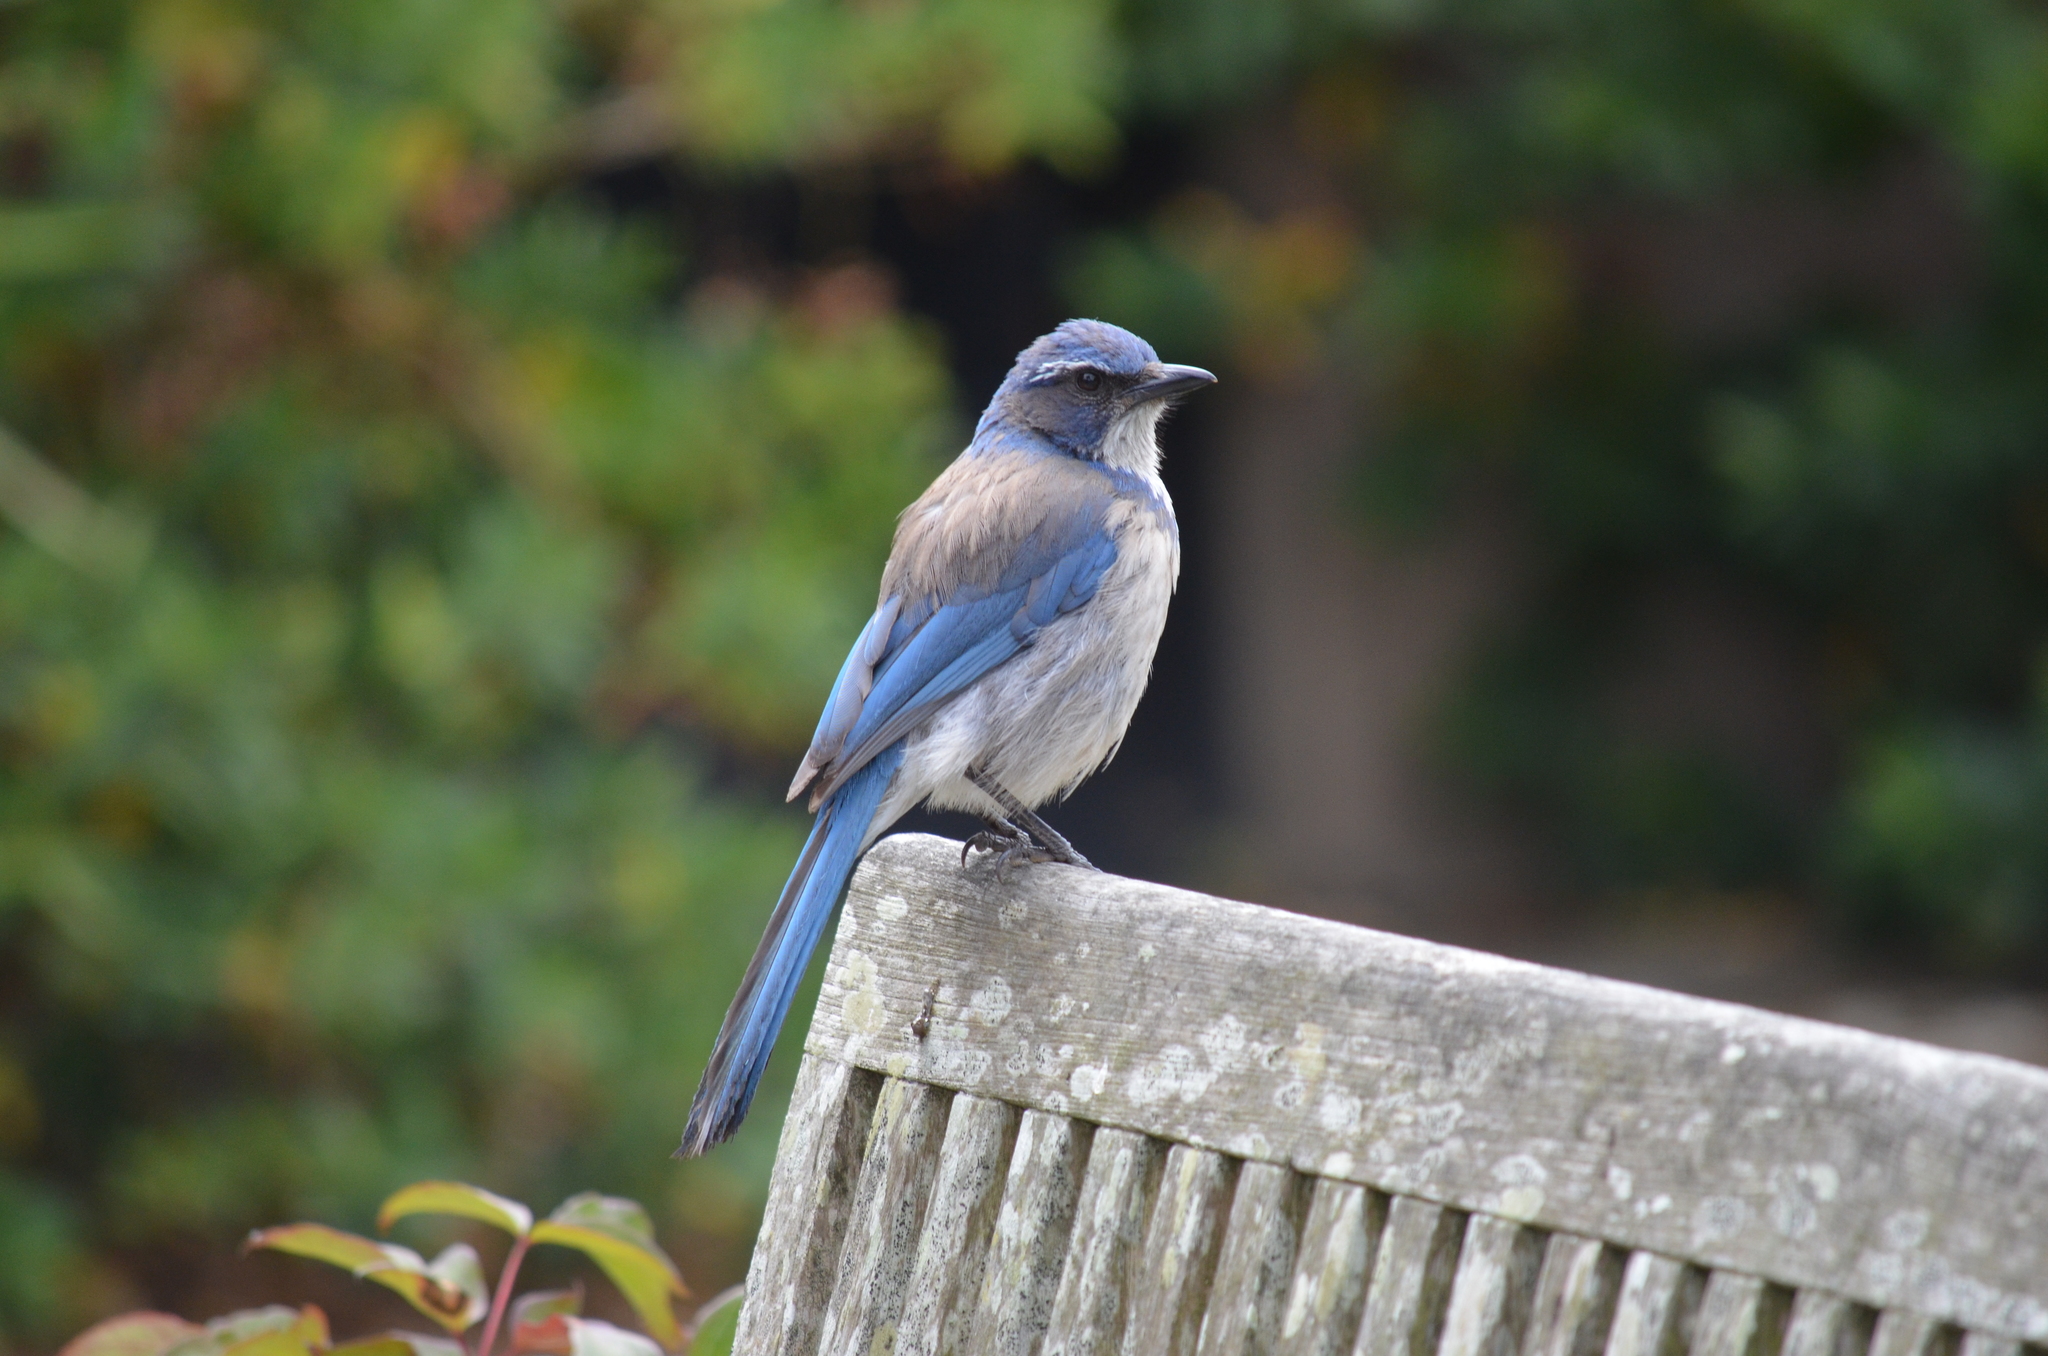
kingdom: Animalia
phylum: Chordata
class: Aves
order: Passeriformes
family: Corvidae
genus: Aphelocoma
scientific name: Aphelocoma californica
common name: California scrub-jay
